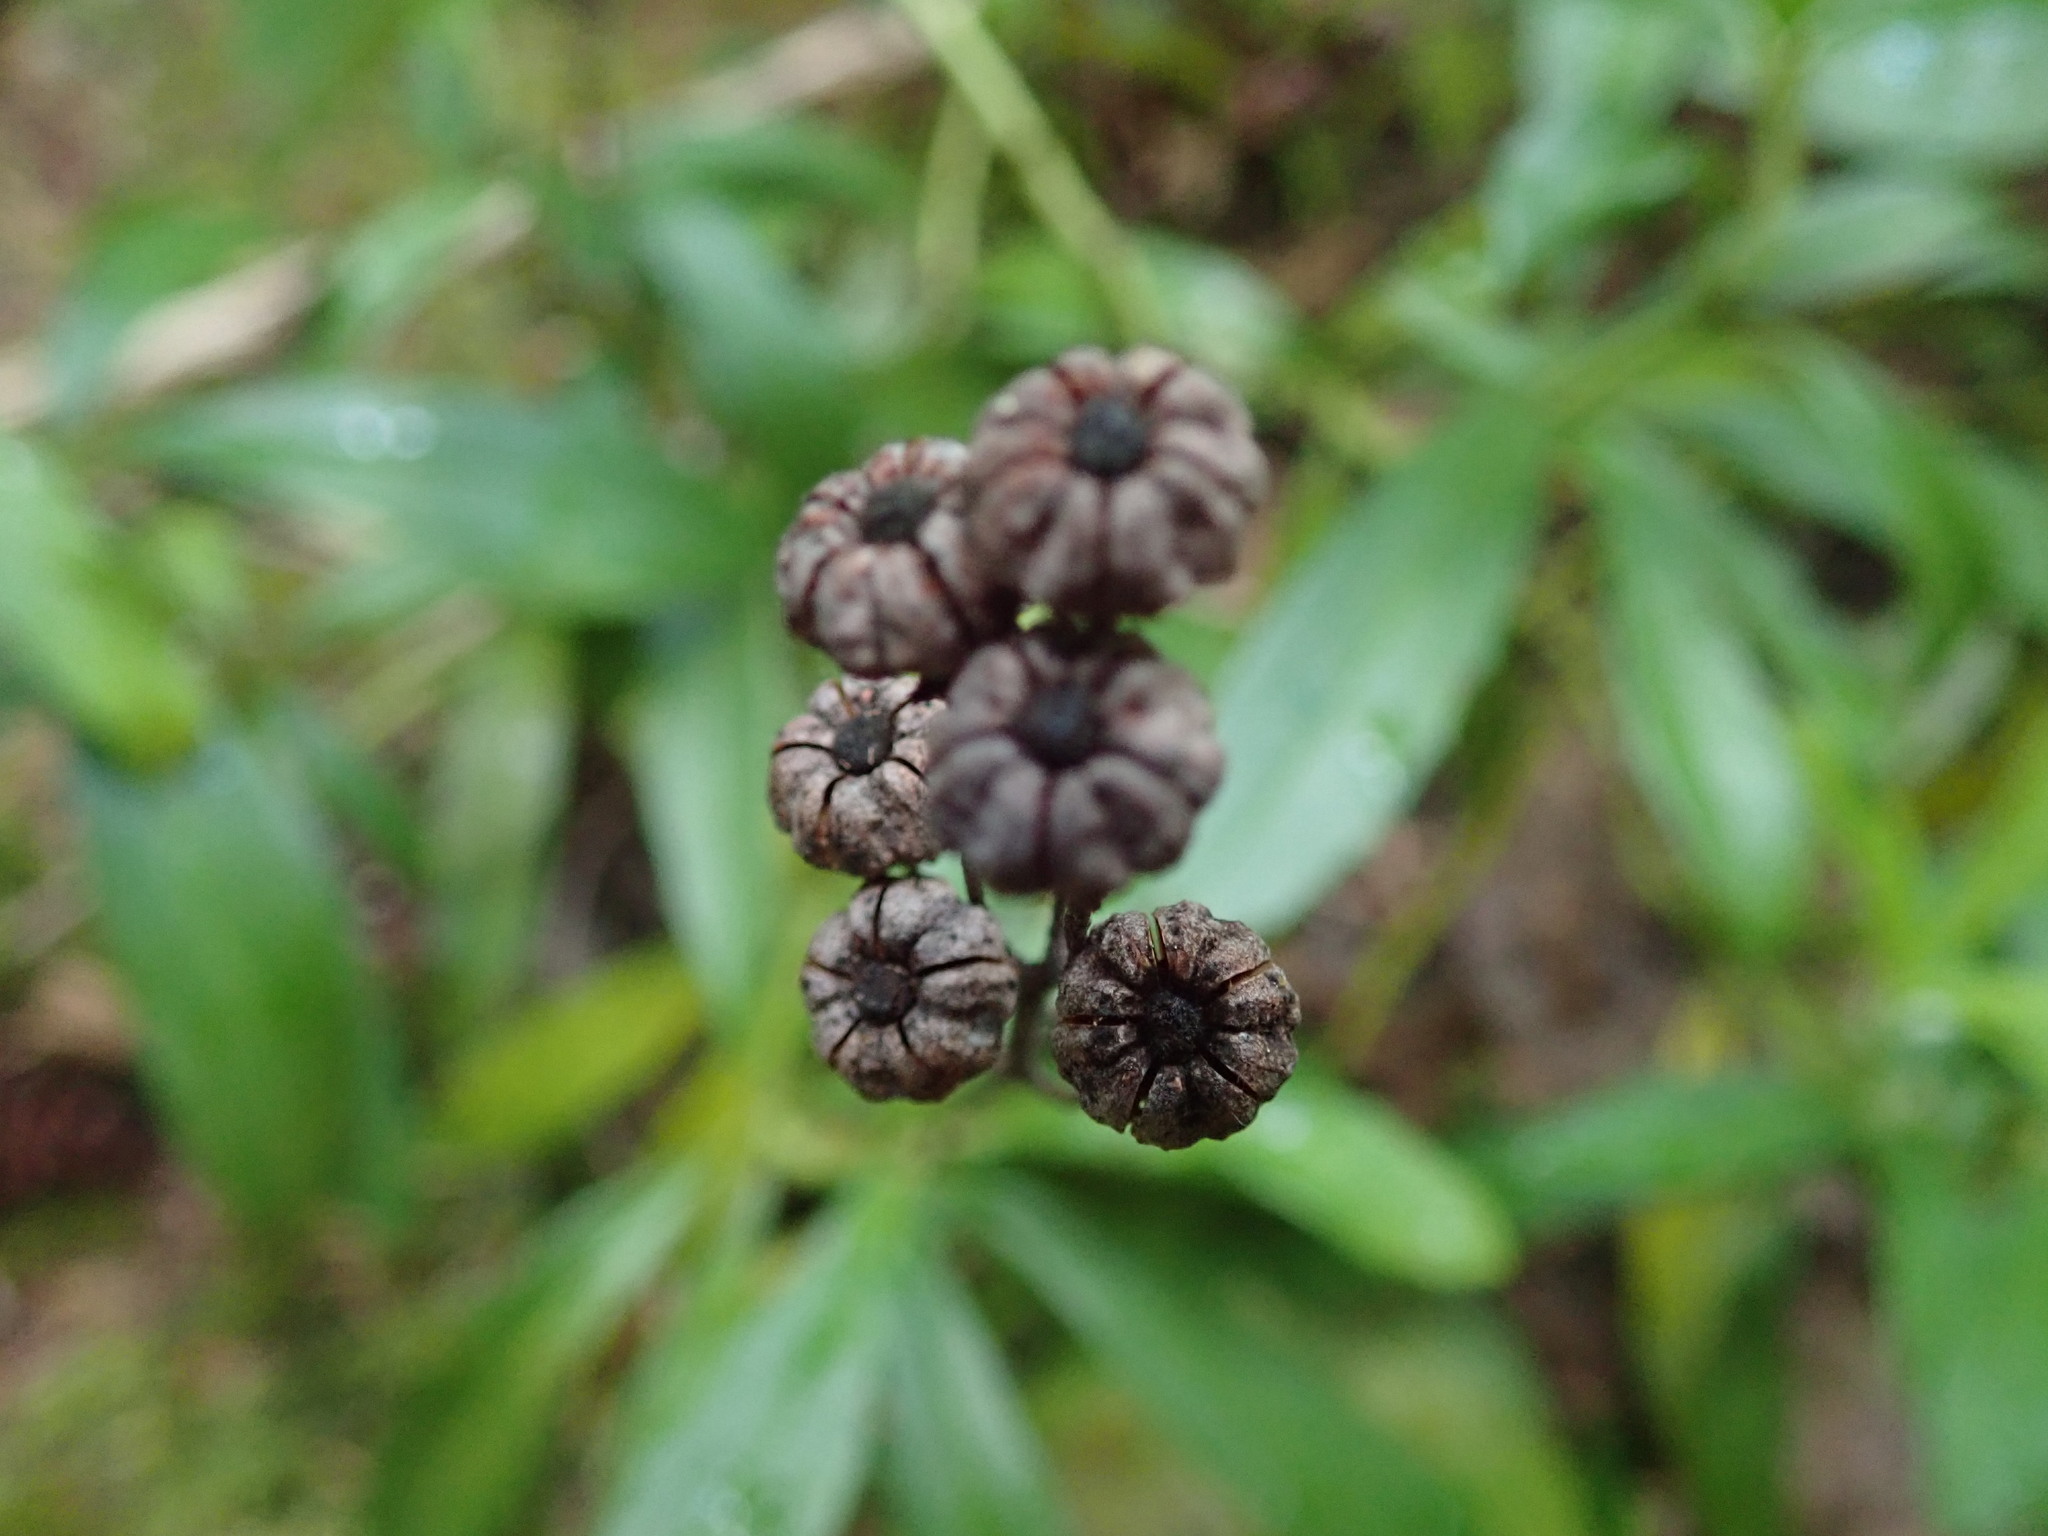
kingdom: Plantae
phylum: Tracheophyta
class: Magnoliopsida
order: Ericales
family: Ericaceae
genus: Chimaphila
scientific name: Chimaphila umbellata
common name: Pipsissewa
